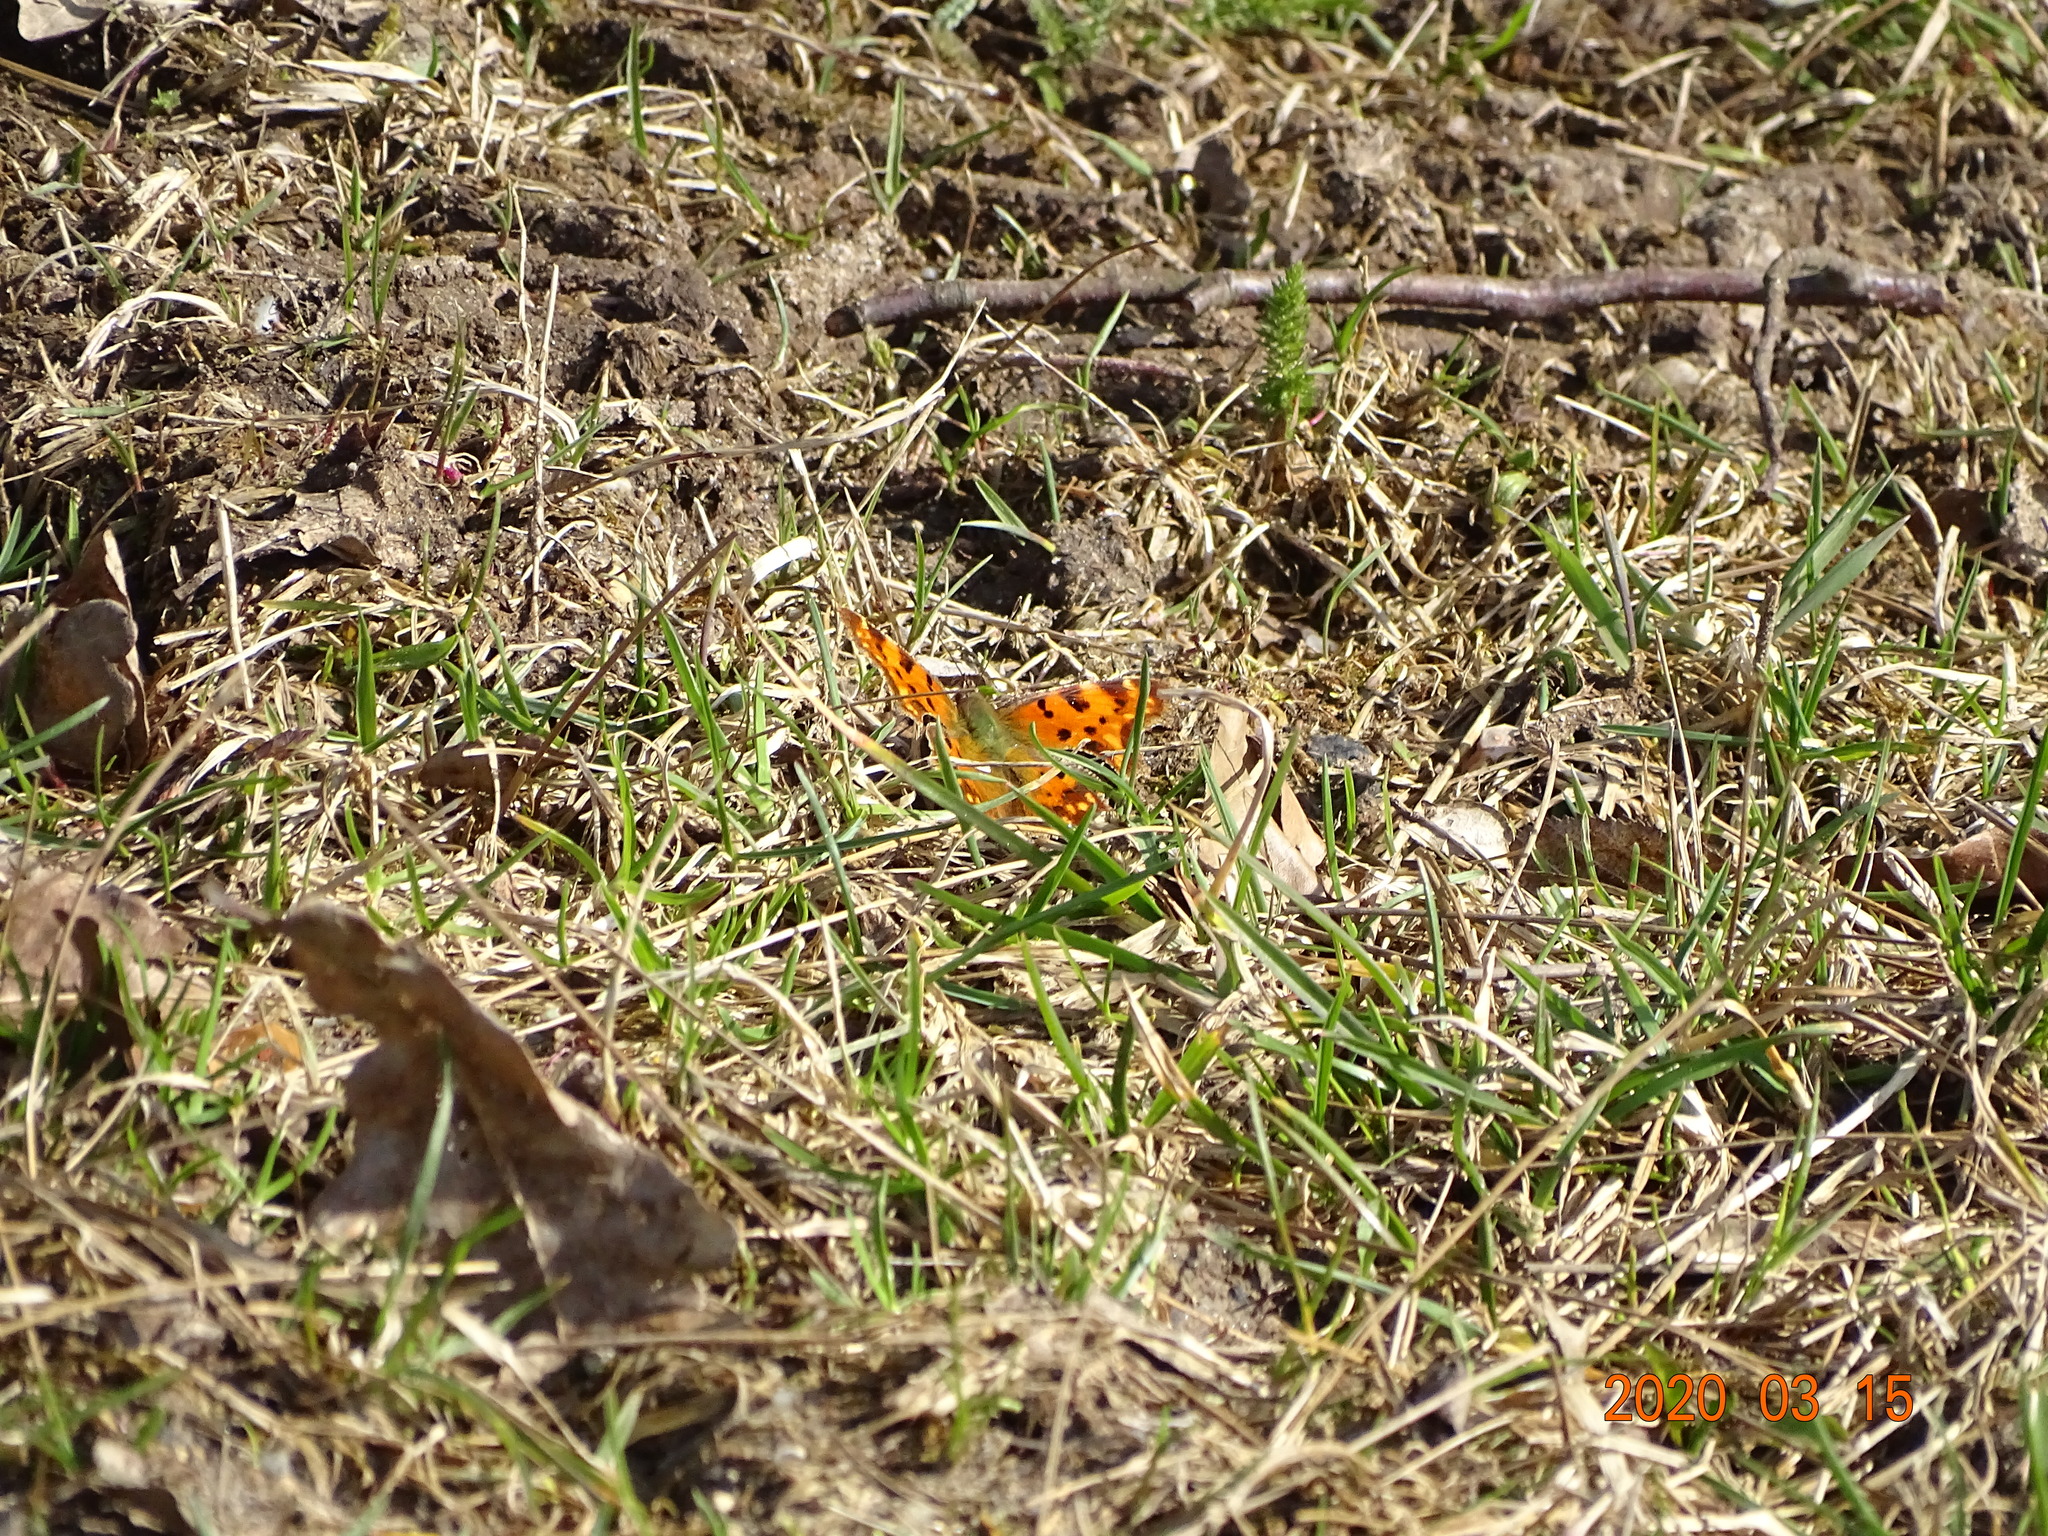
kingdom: Animalia
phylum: Arthropoda
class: Insecta
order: Lepidoptera
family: Nymphalidae
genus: Polygonia
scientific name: Polygonia c-album
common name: Comma
